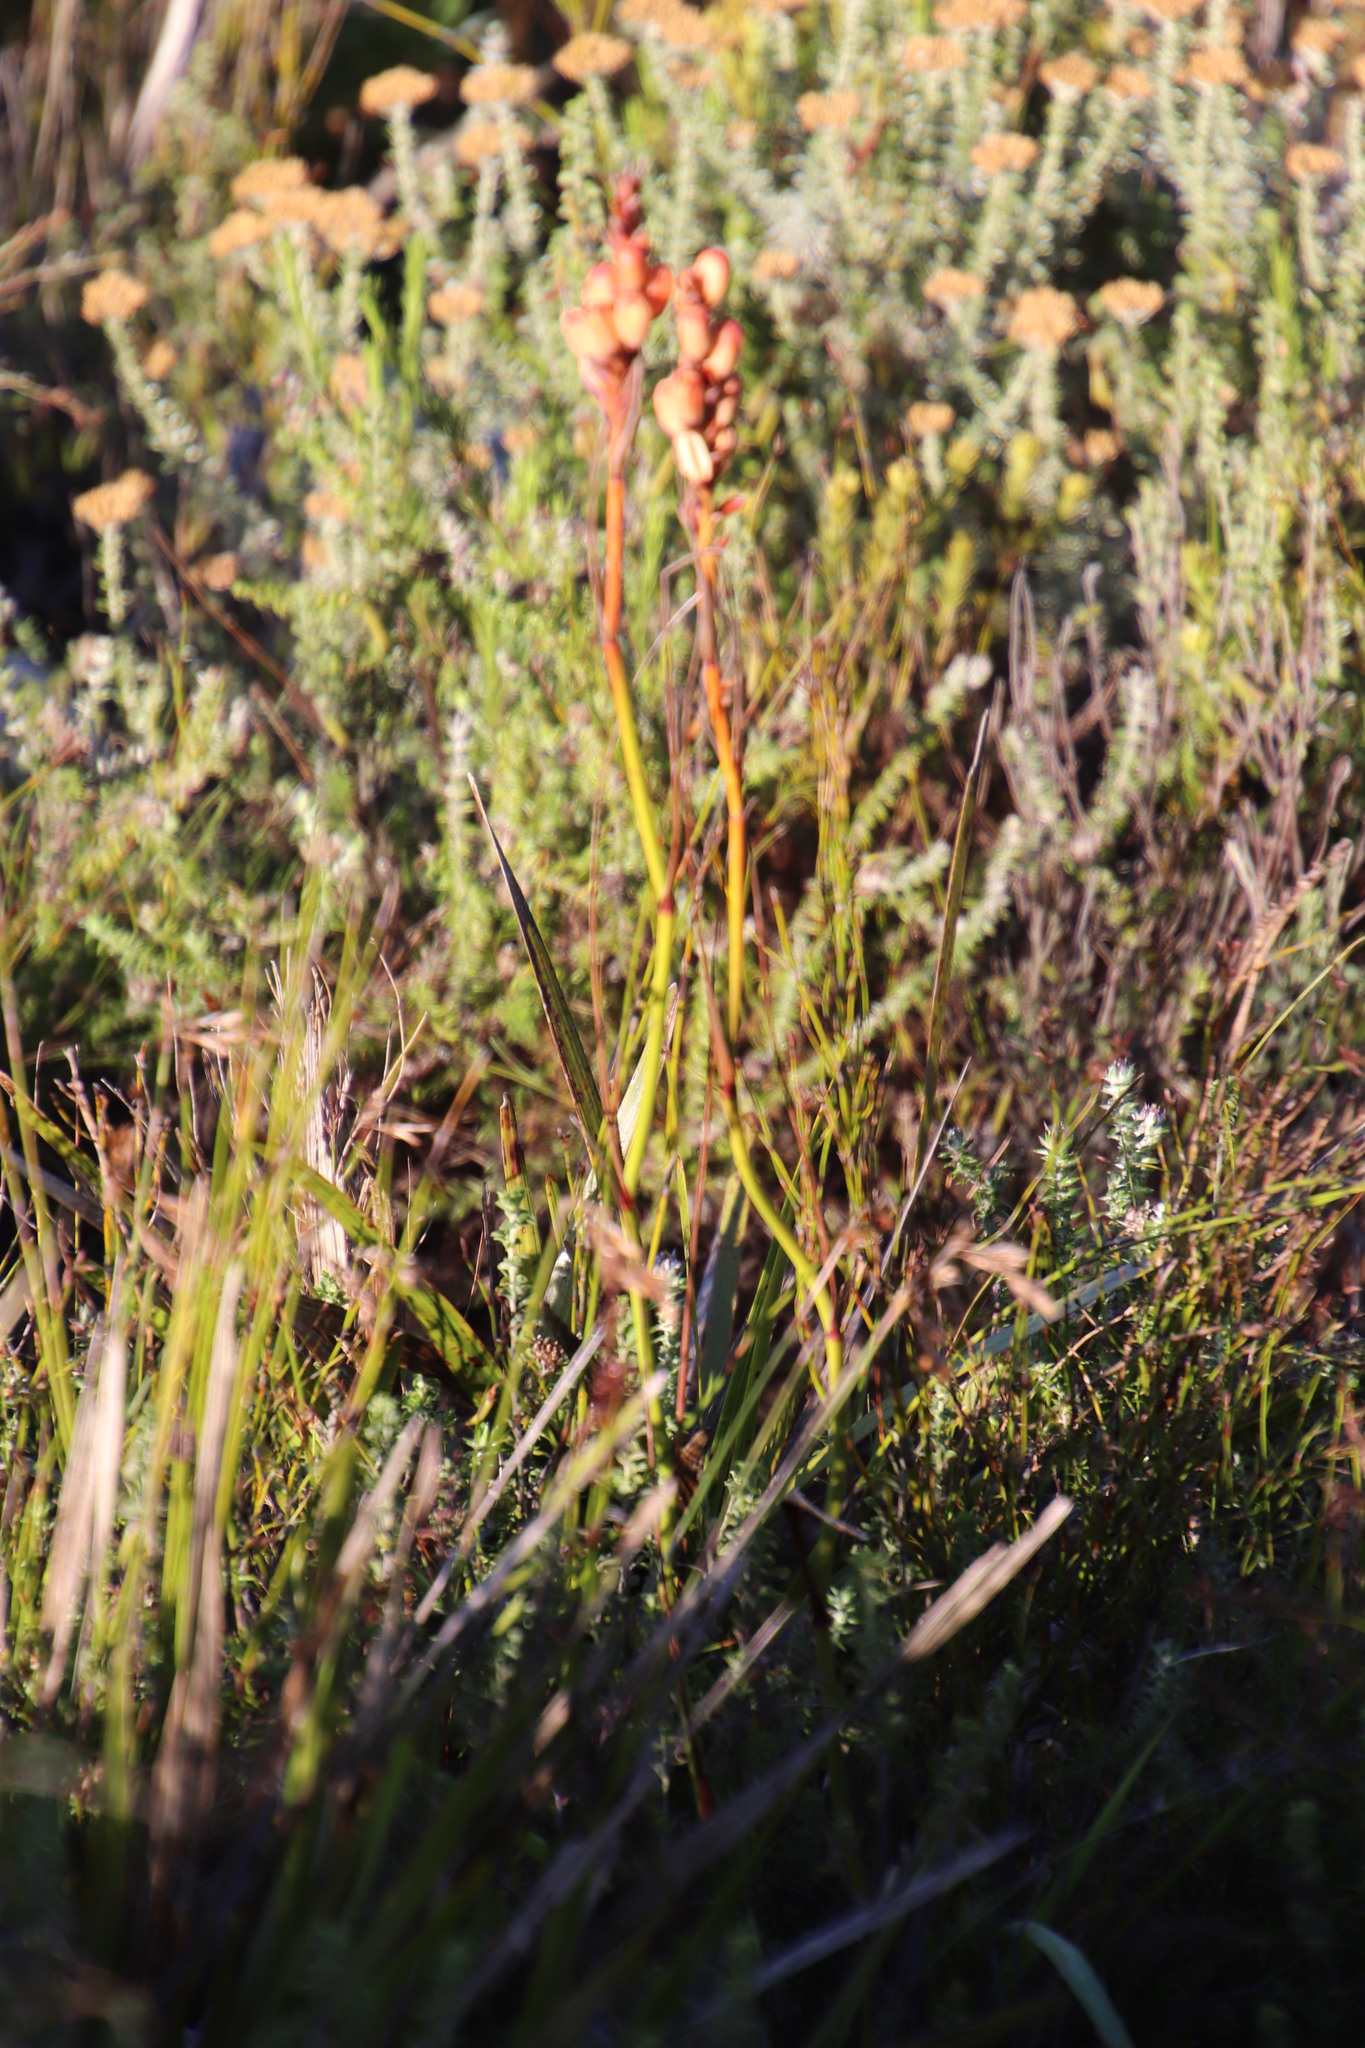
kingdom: Plantae
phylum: Tracheophyta
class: Liliopsida
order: Asparagales
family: Iridaceae
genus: Tritoniopsis
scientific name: Tritoniopsis triticea
